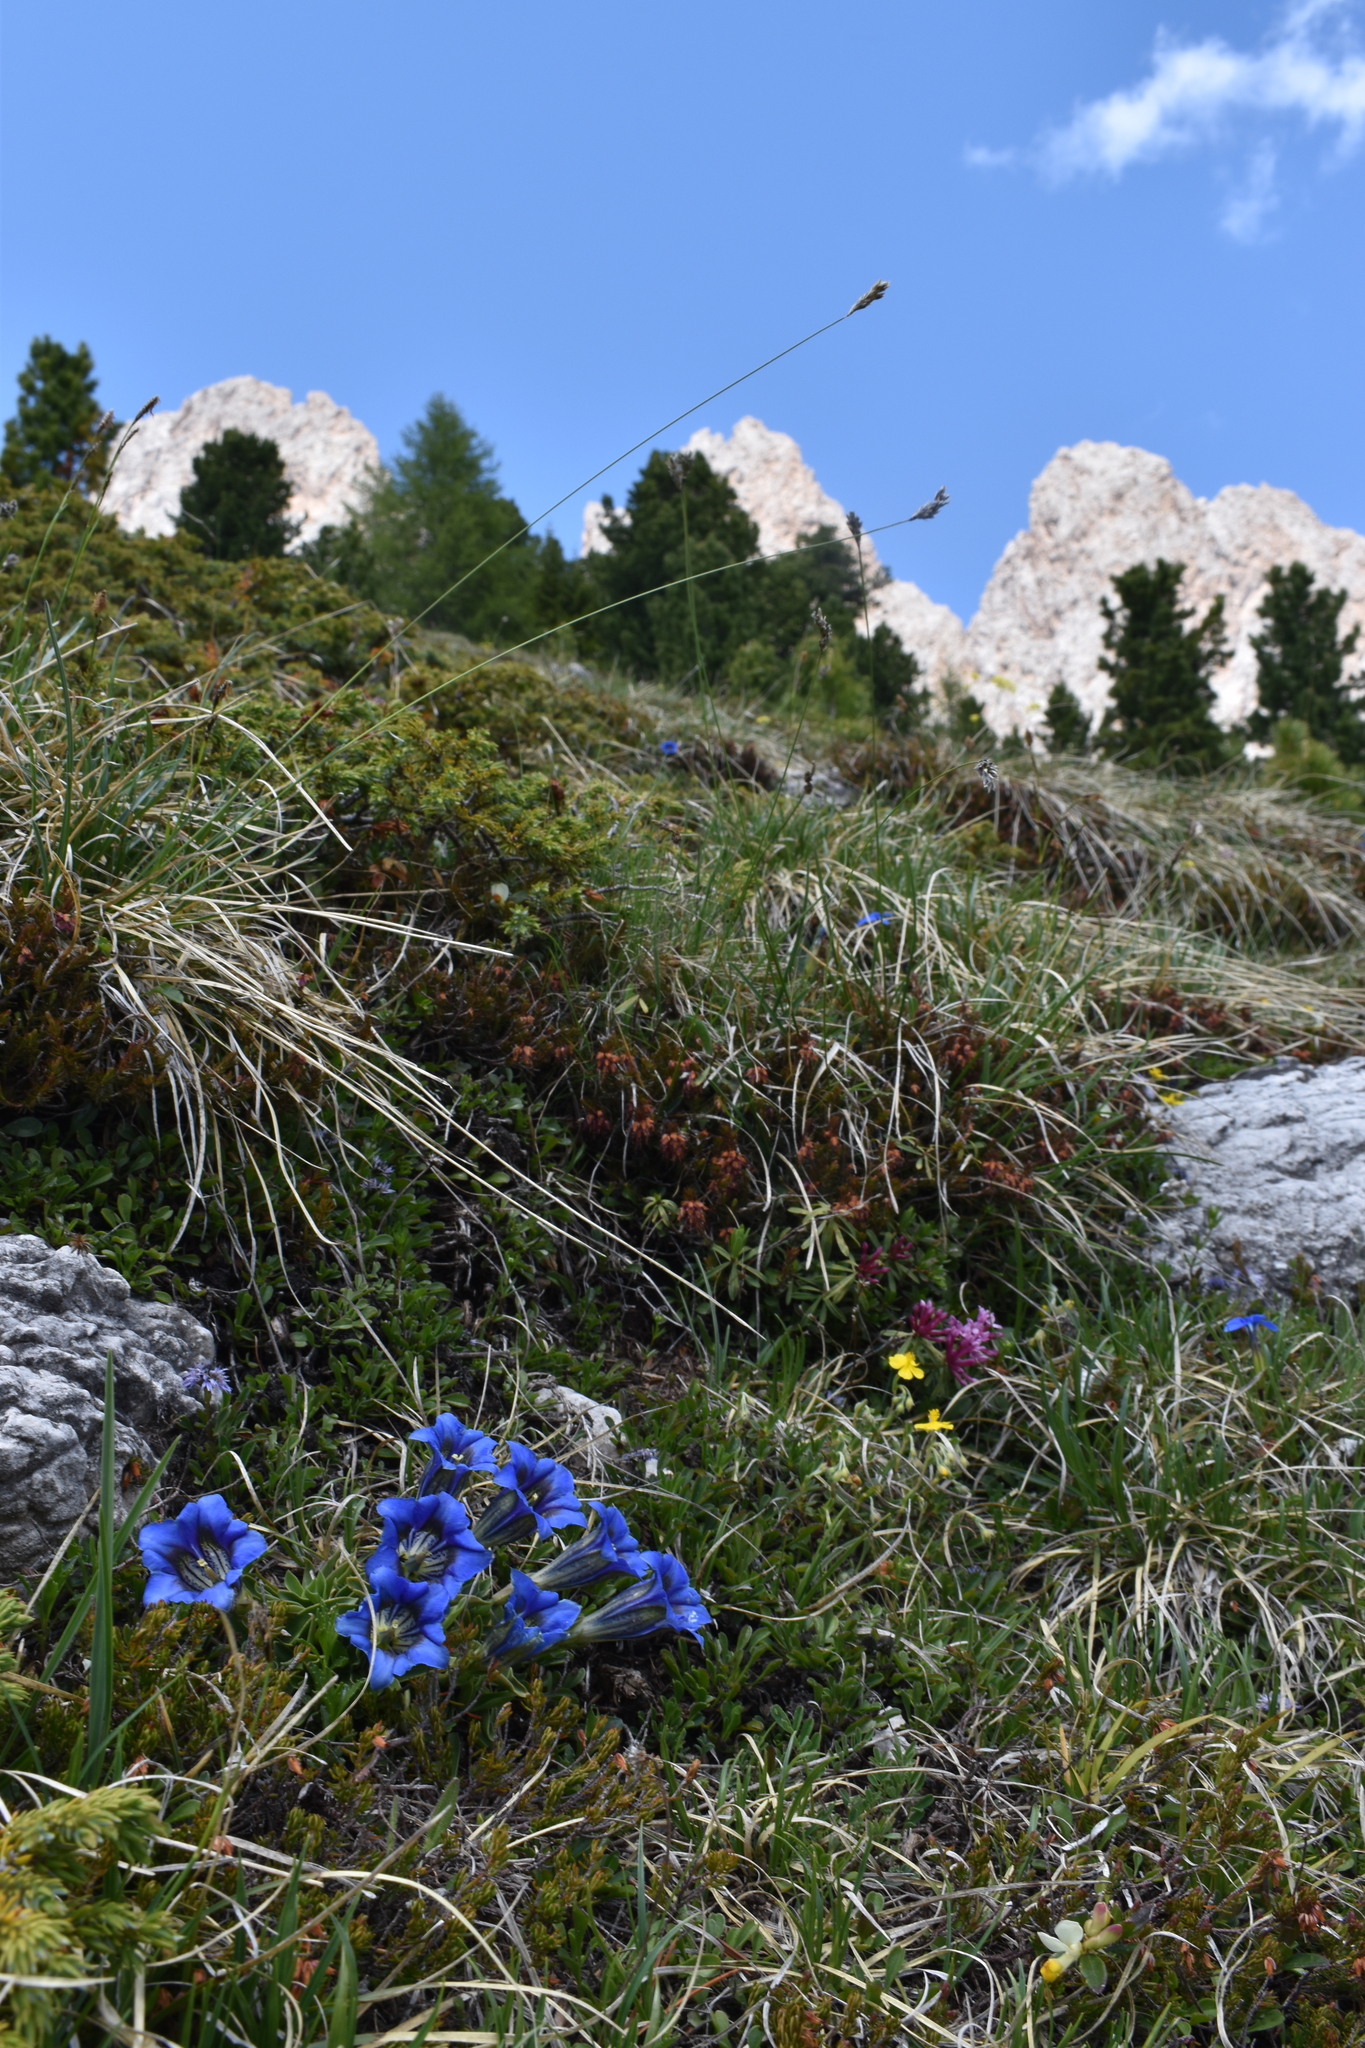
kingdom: Plantae
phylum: Tracheophyta
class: Magnoliopsida
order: Gentianales
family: Gentianaceae
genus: Gentiana
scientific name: Gentiana digenea
